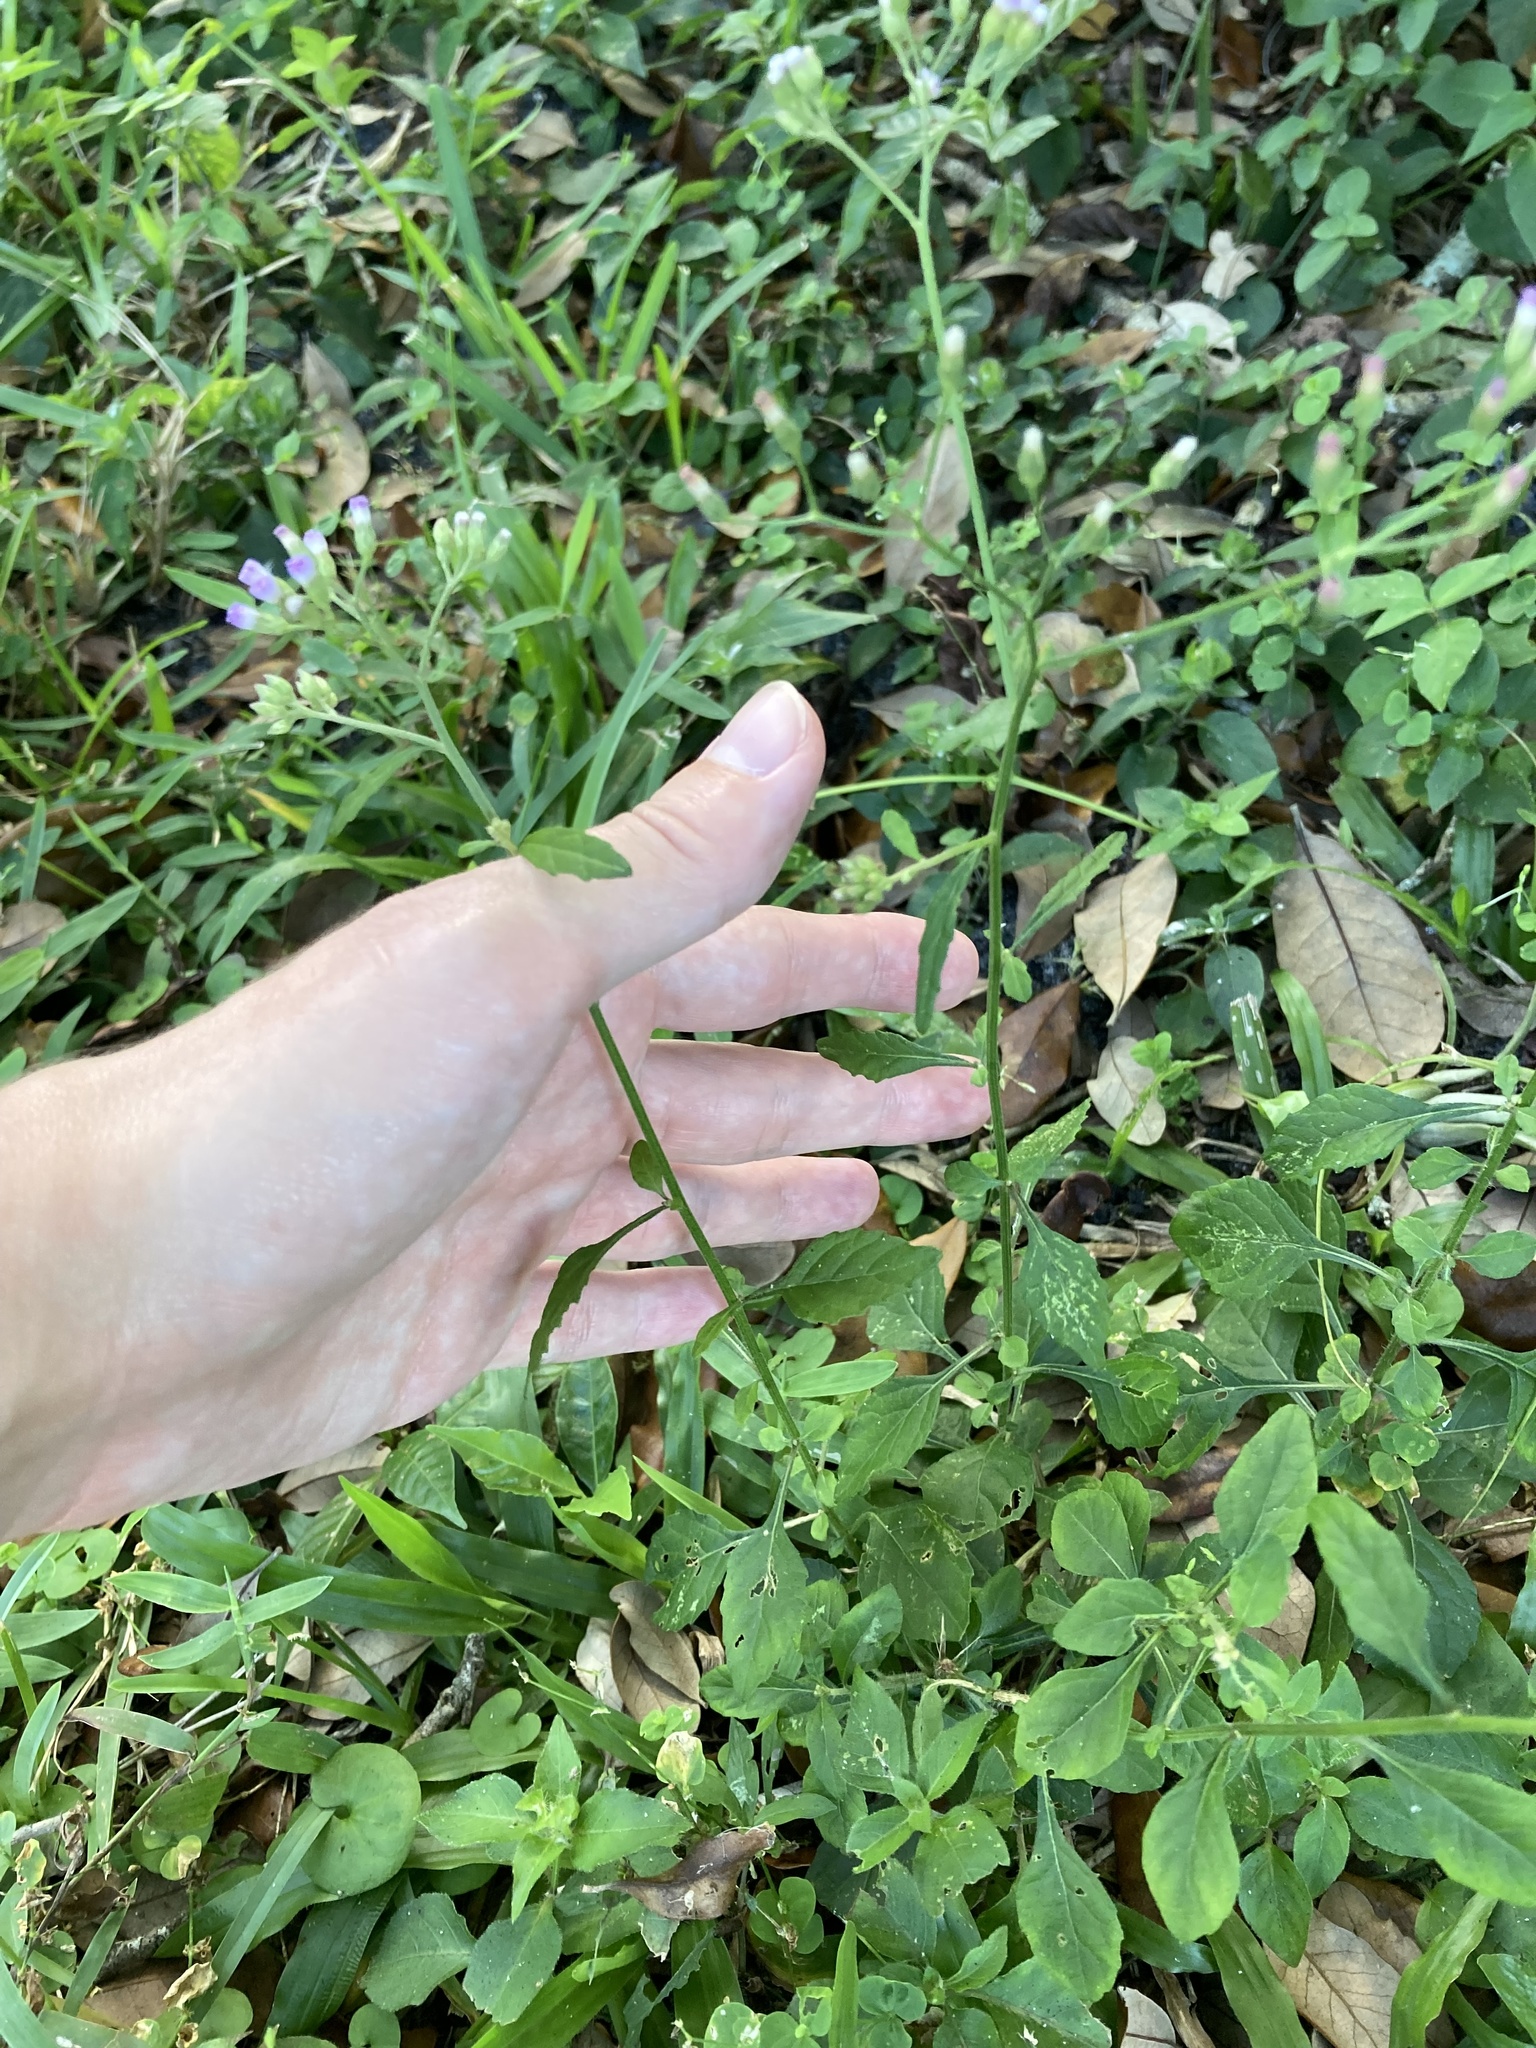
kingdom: Plantae
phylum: Tracheophyta
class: Magnoliopsida
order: Asterales
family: Asteraceae
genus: Cyanthillium
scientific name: Cyanthillium cinereum
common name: Little ironweed
